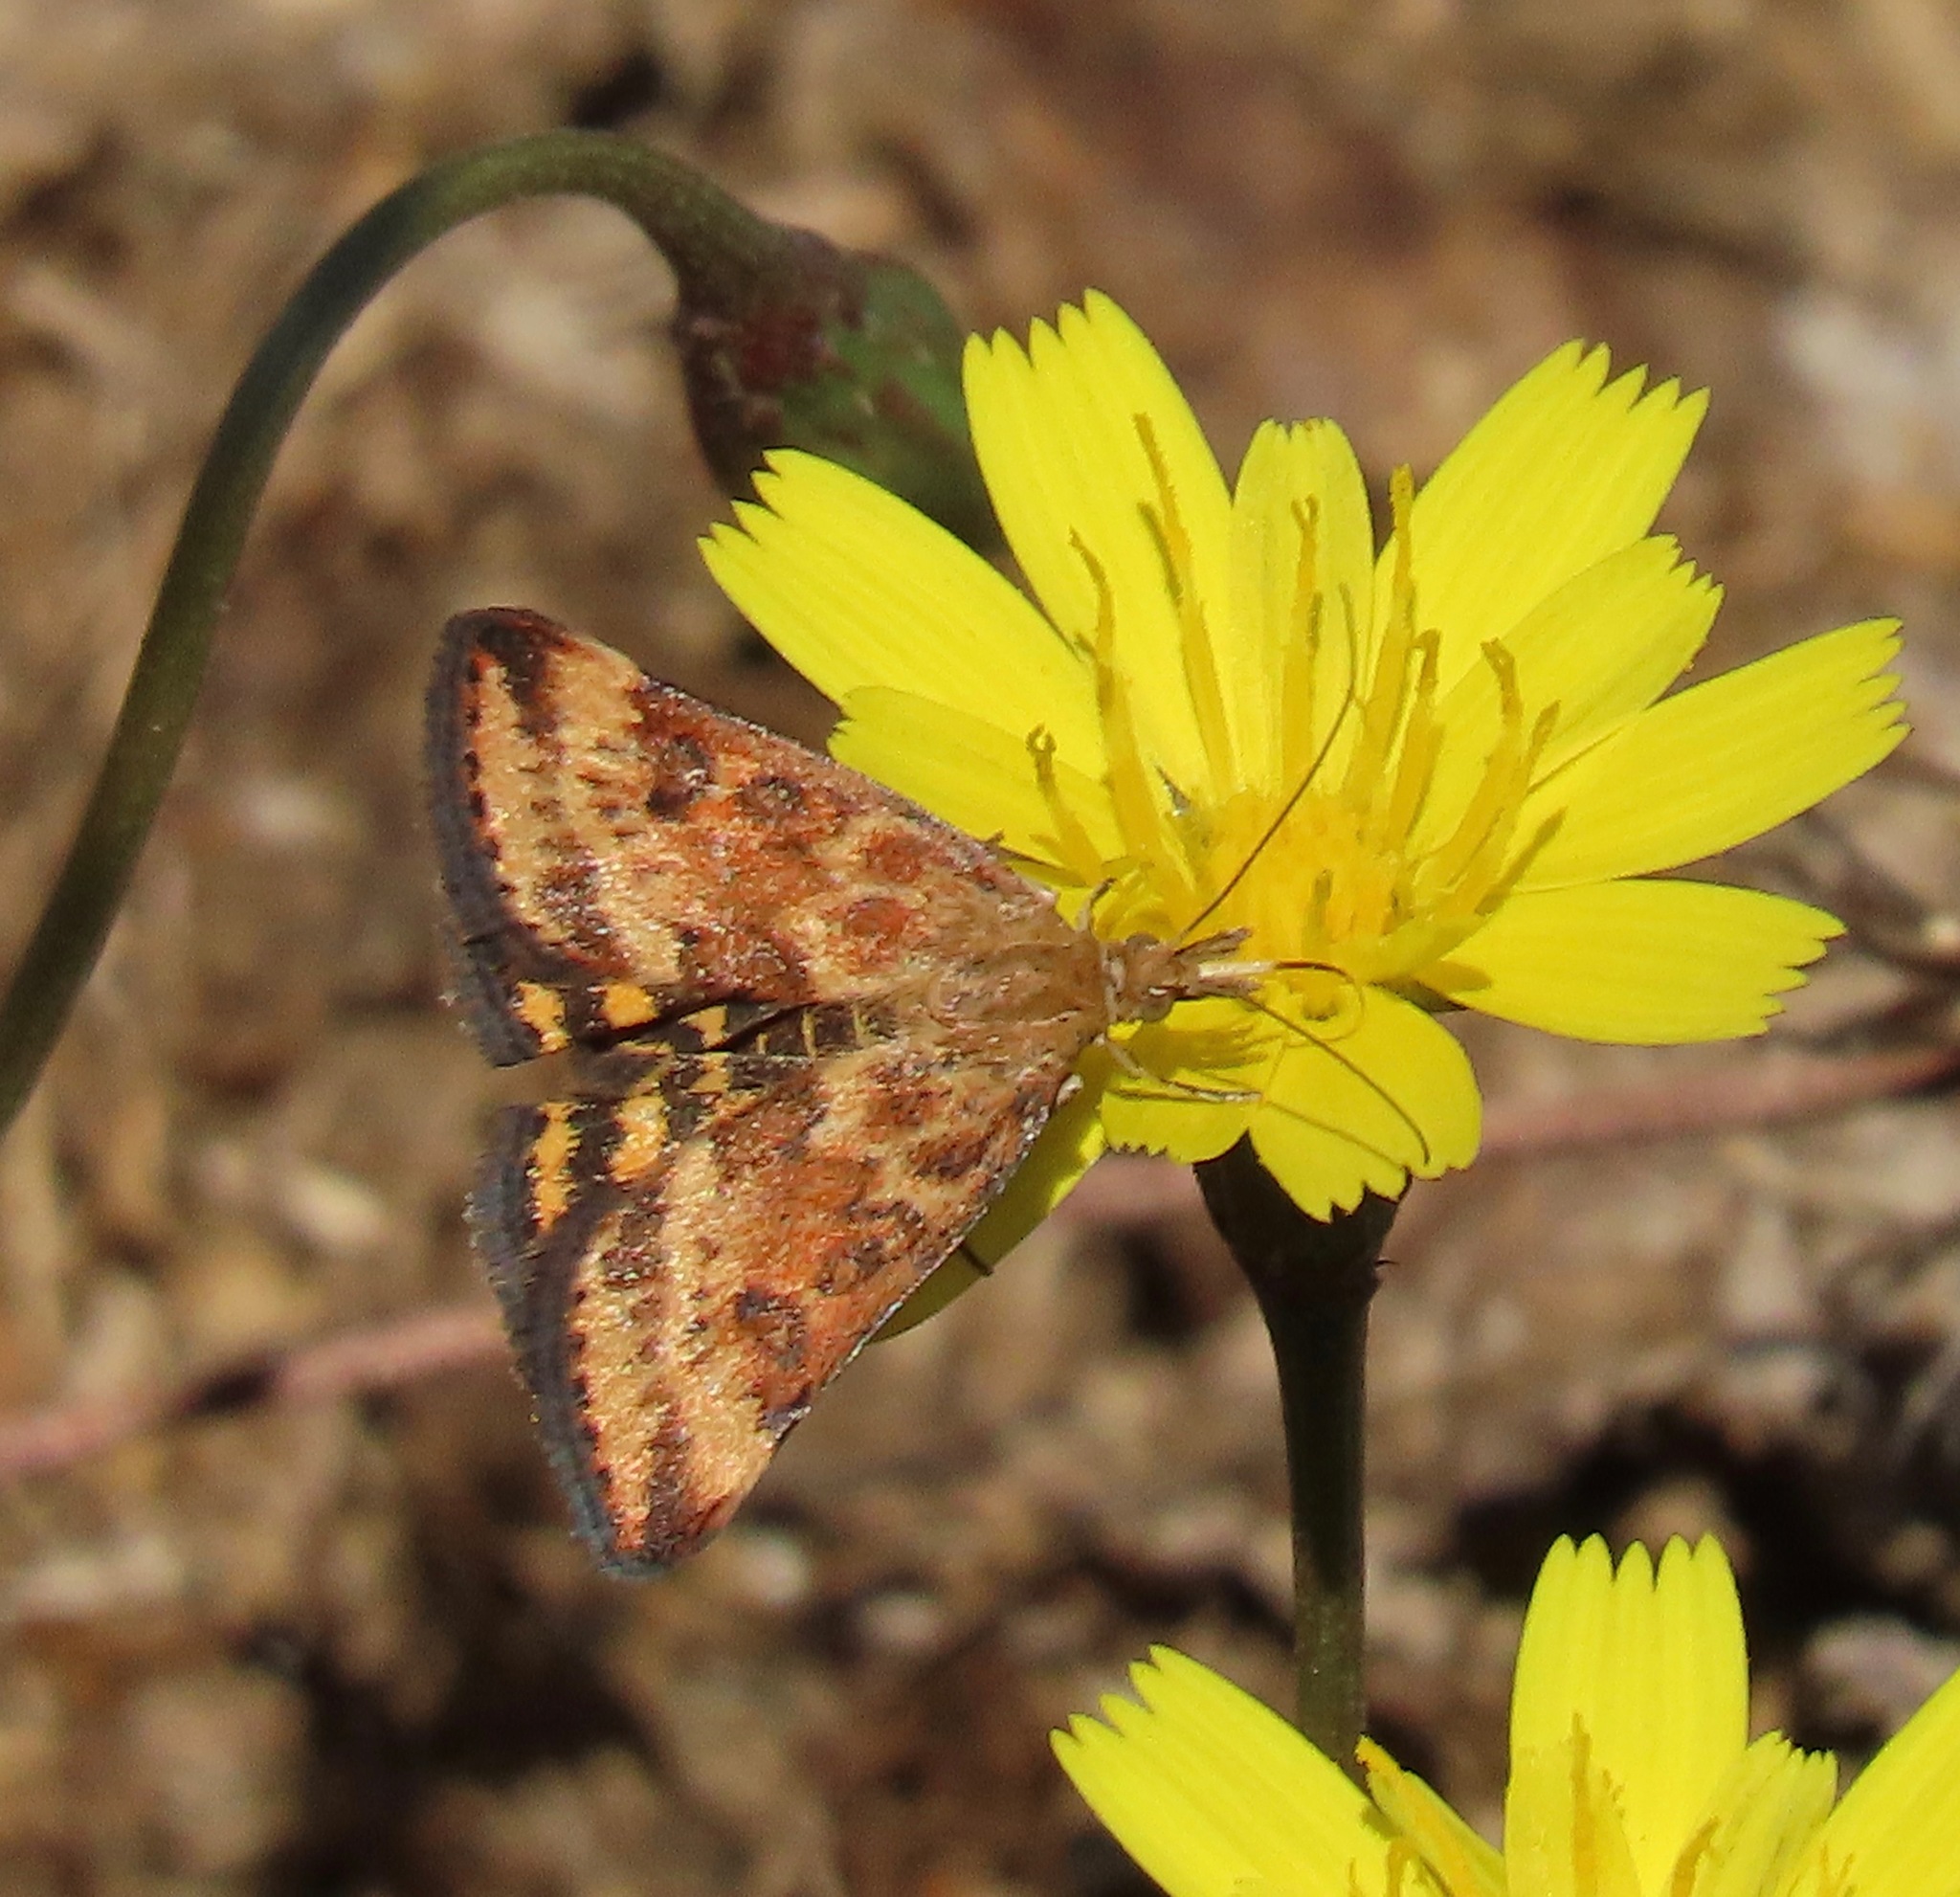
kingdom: Animalia
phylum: Arthropoda
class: Insecta
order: Lepidoptera
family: Crambidae
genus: Pyrausta
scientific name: Pyrausta subsequalis
